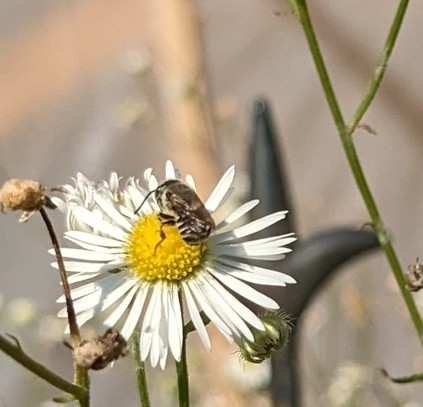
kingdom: Animalia
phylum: Arthropoda
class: Insecta
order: Hymenoptera
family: Megachilidae
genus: Megachile
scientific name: Megachile rotundata
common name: Alfalfa leafcutting bee
